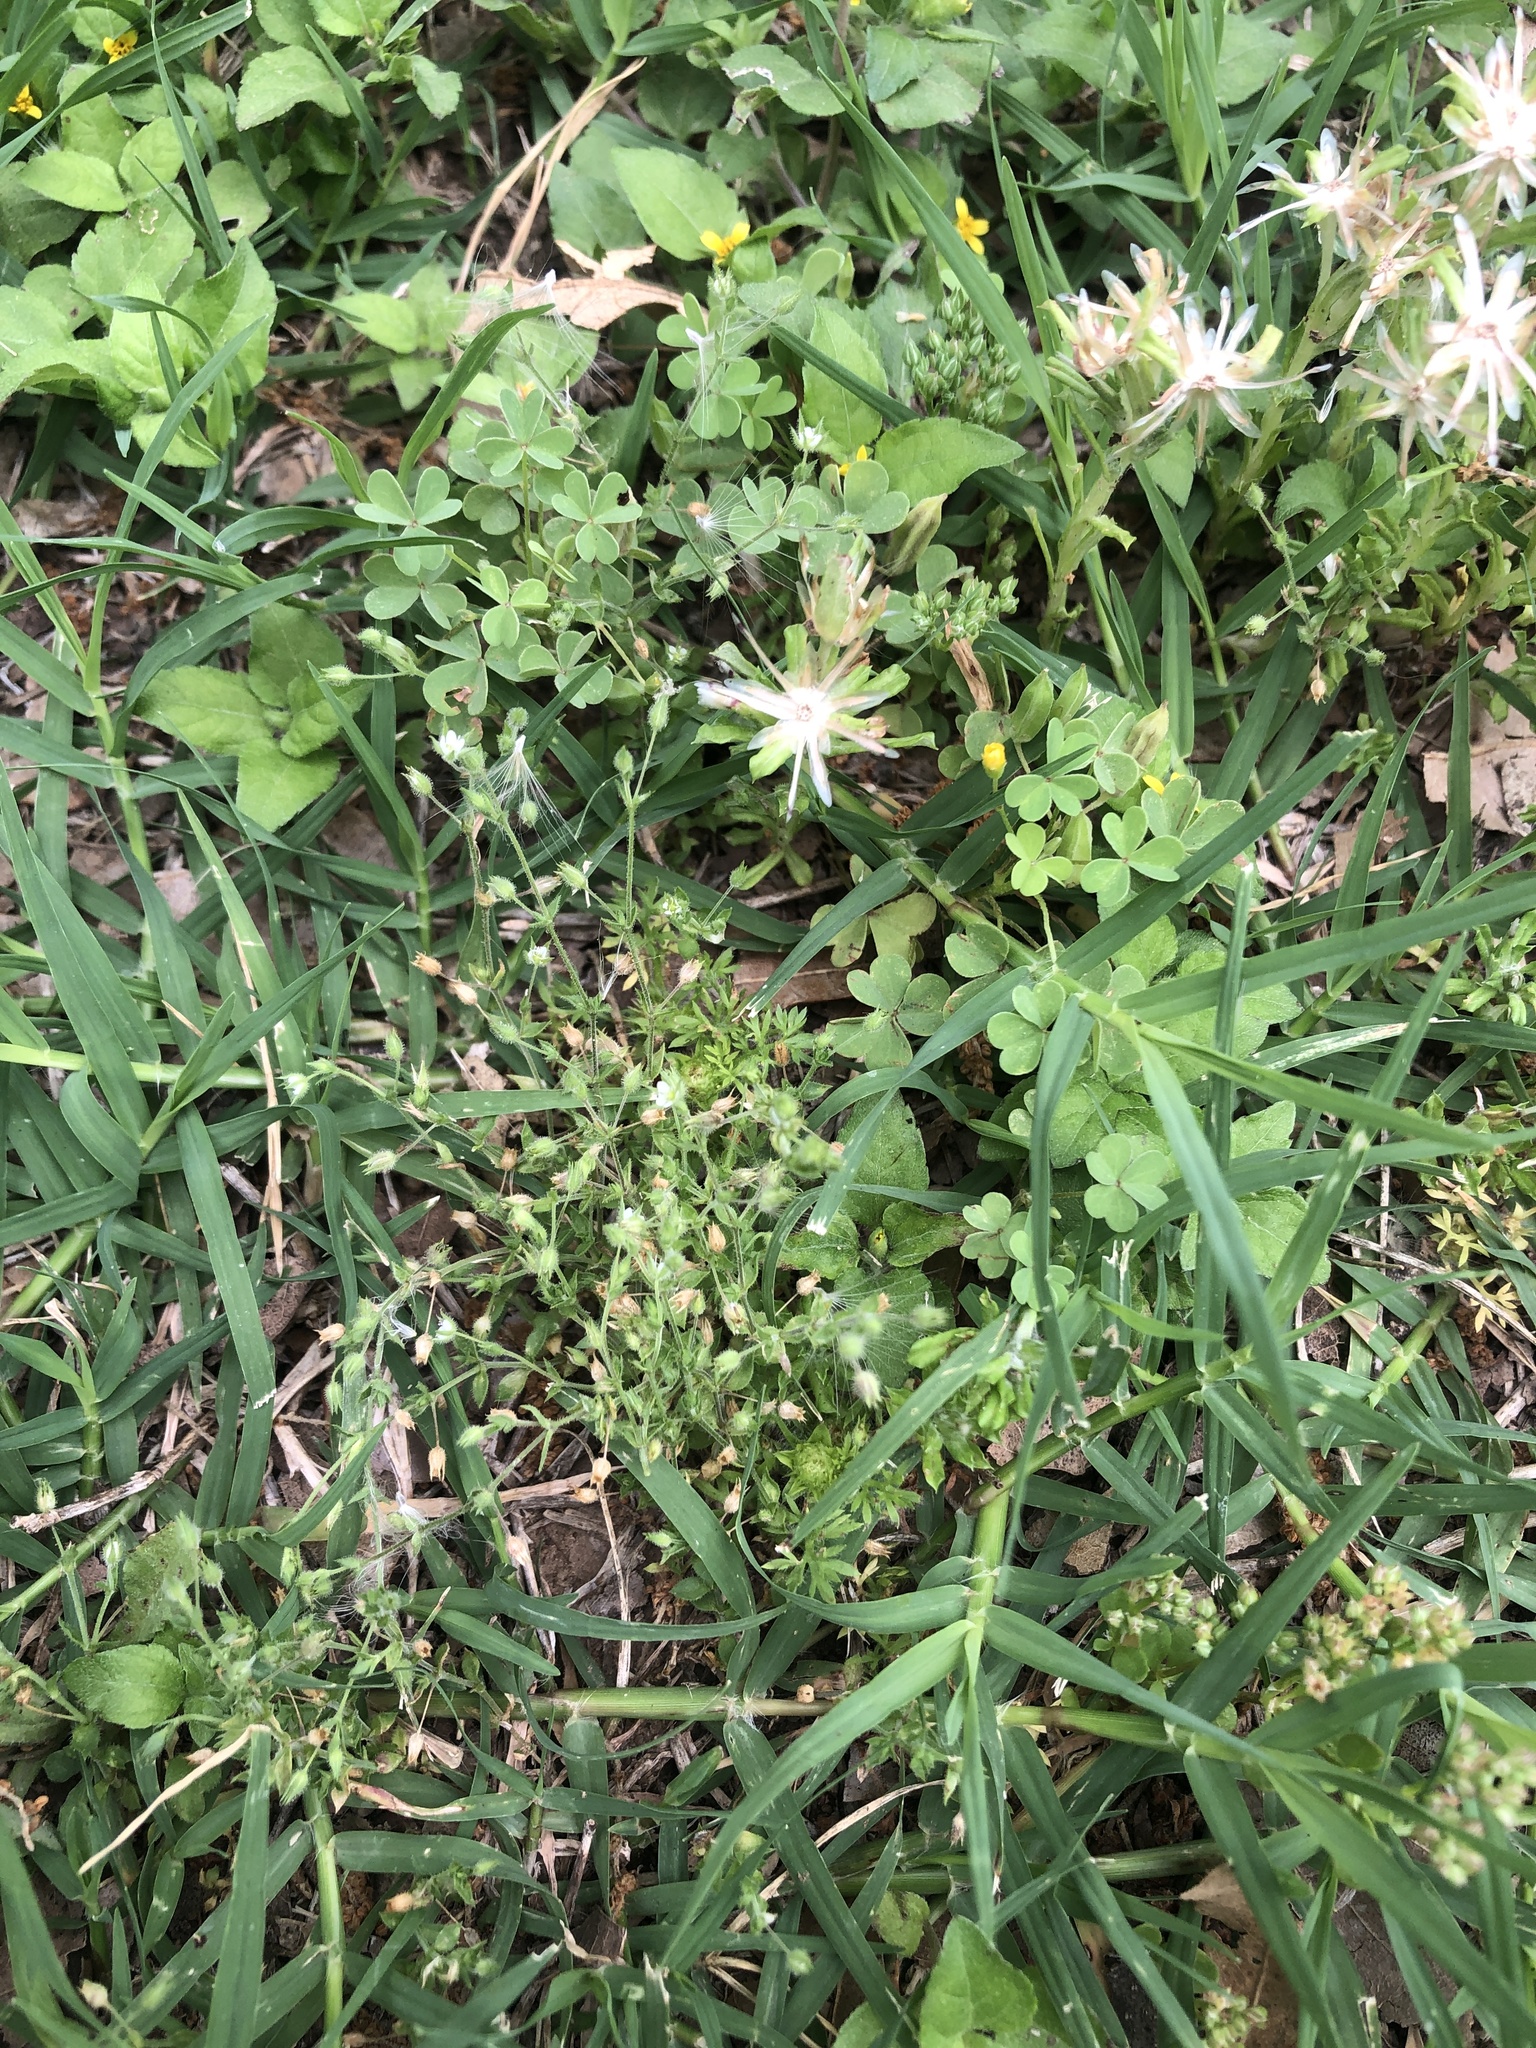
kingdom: Plantae
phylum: Tracheophyta
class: Magnoliopsida
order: Caryophyllales
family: Caryophyllaceae
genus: Arenaria
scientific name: Arenaria serpyllifolia
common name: Thyme-leaved sandwort
